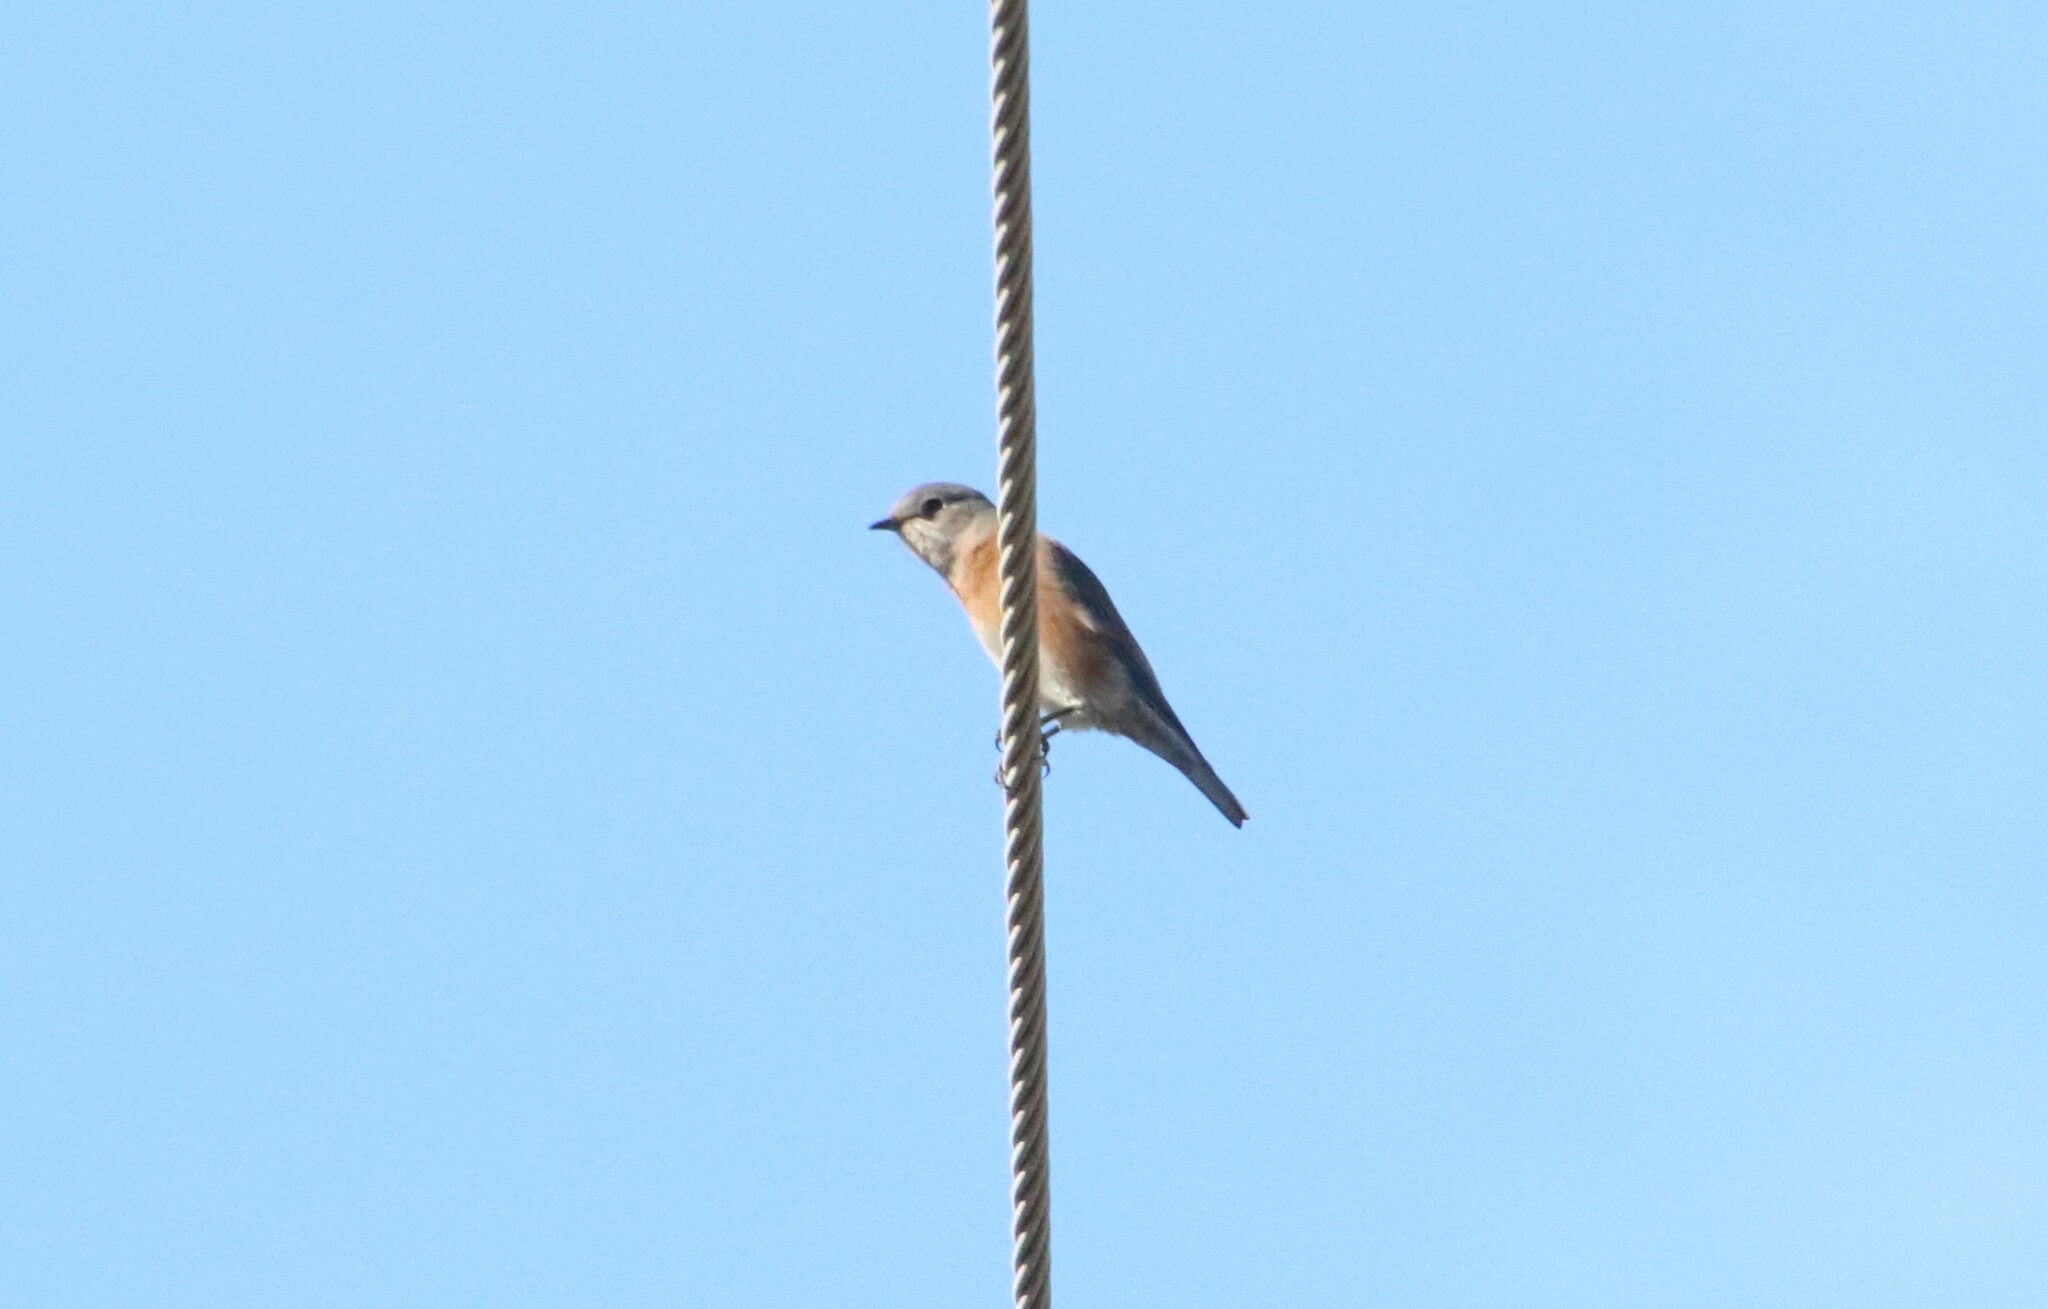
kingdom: Animalia
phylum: Chordata
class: Aves
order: Passeriformes
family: Turdidae
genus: Sialia
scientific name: Sialia mexicana
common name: Western bluebird
